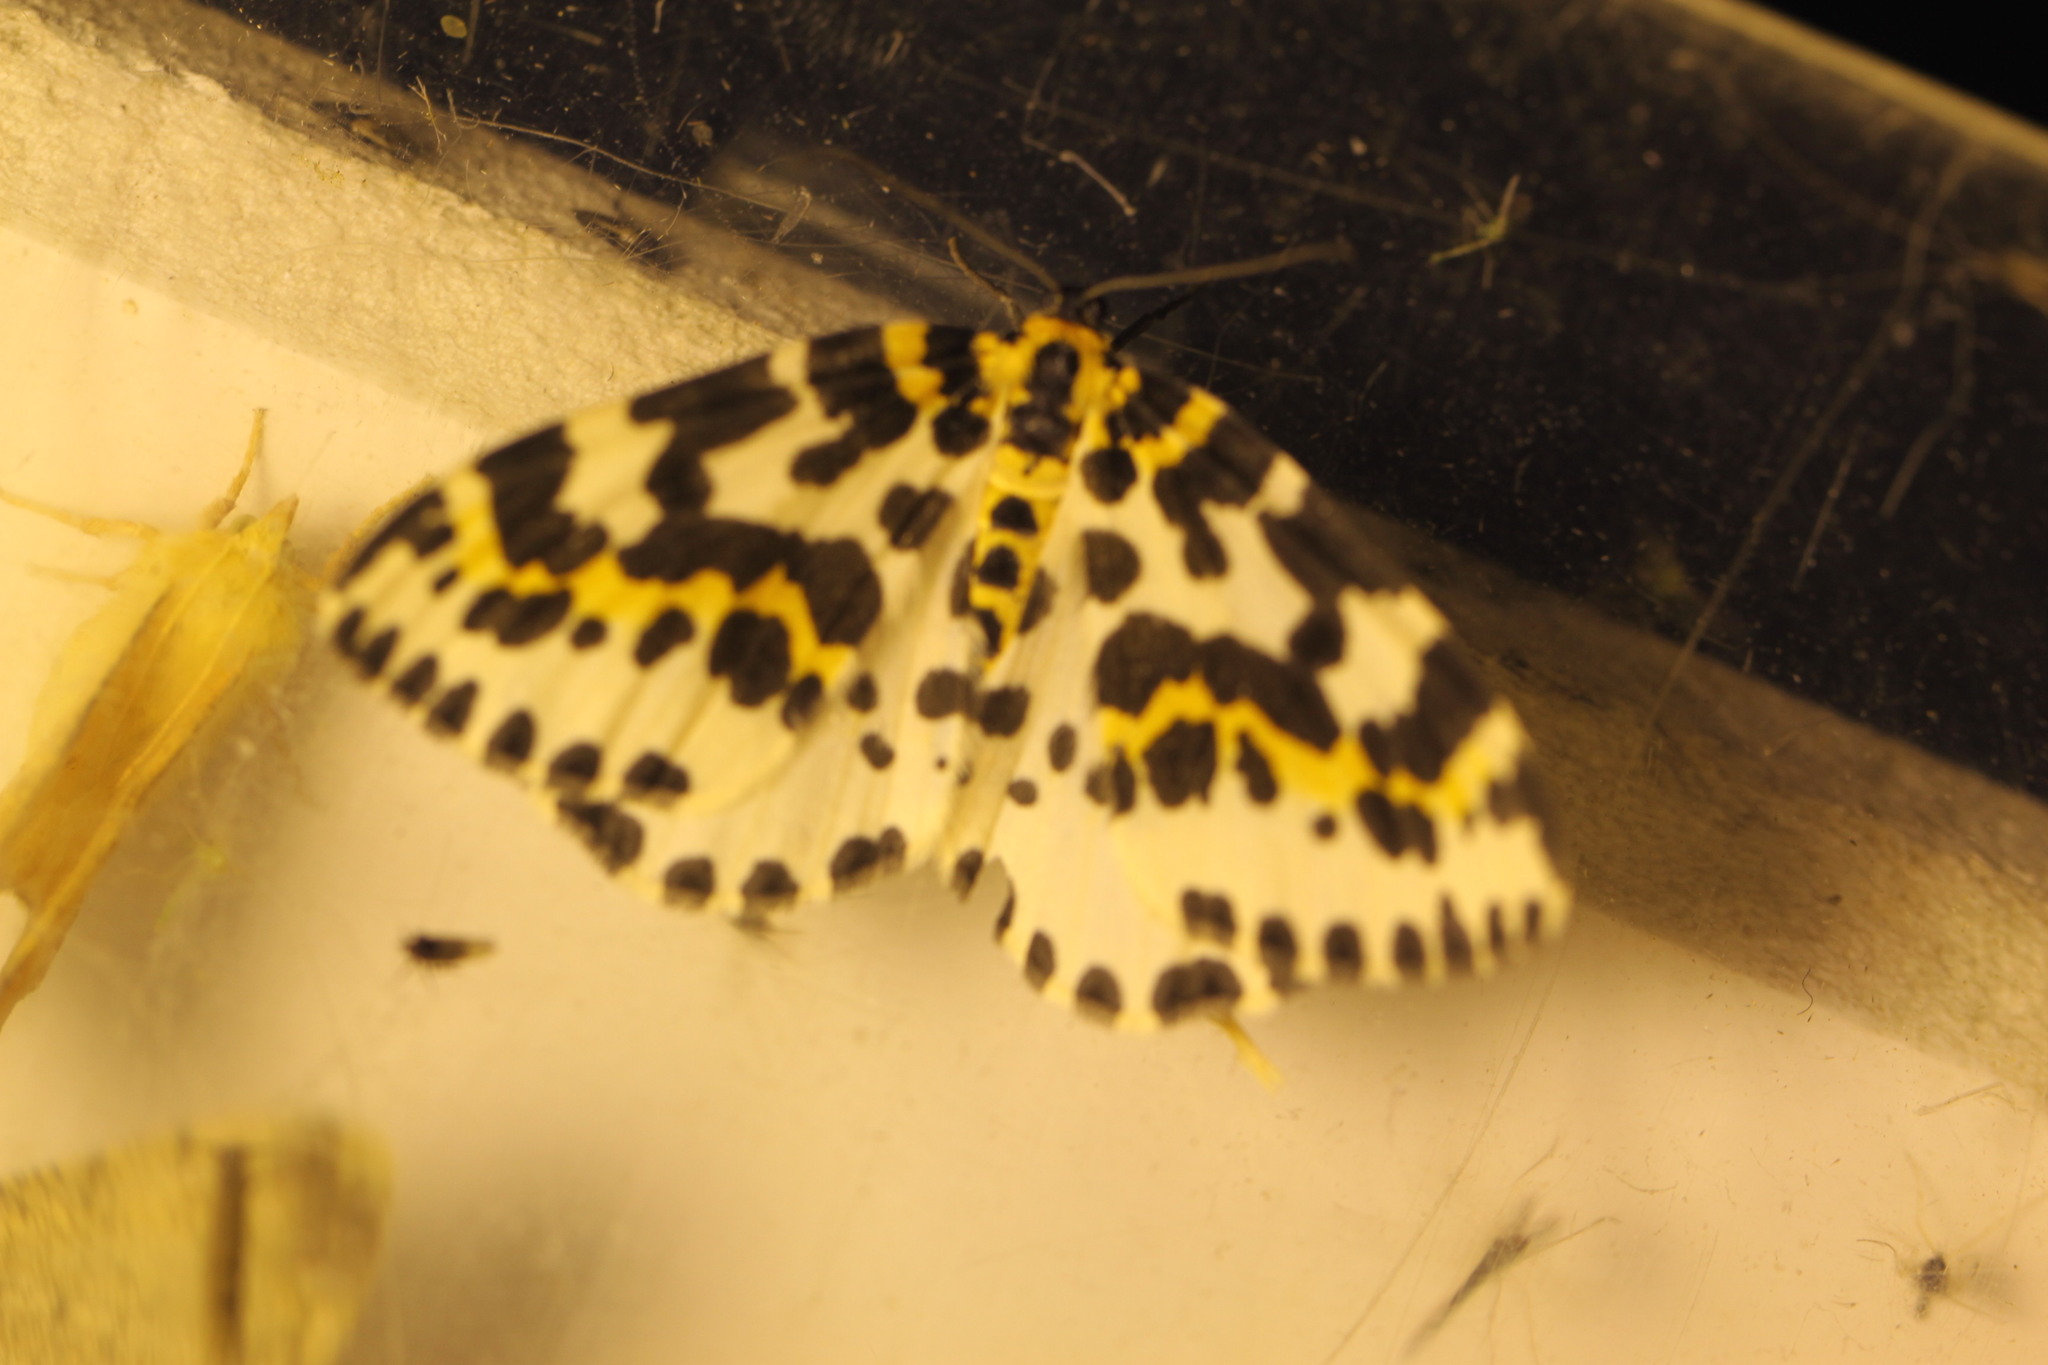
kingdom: Animalia
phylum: Arthropoda
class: Insecta
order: Lepidoptera
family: Geometridae
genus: Abraxas
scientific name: Abraxas grossulariata
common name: Magpie
